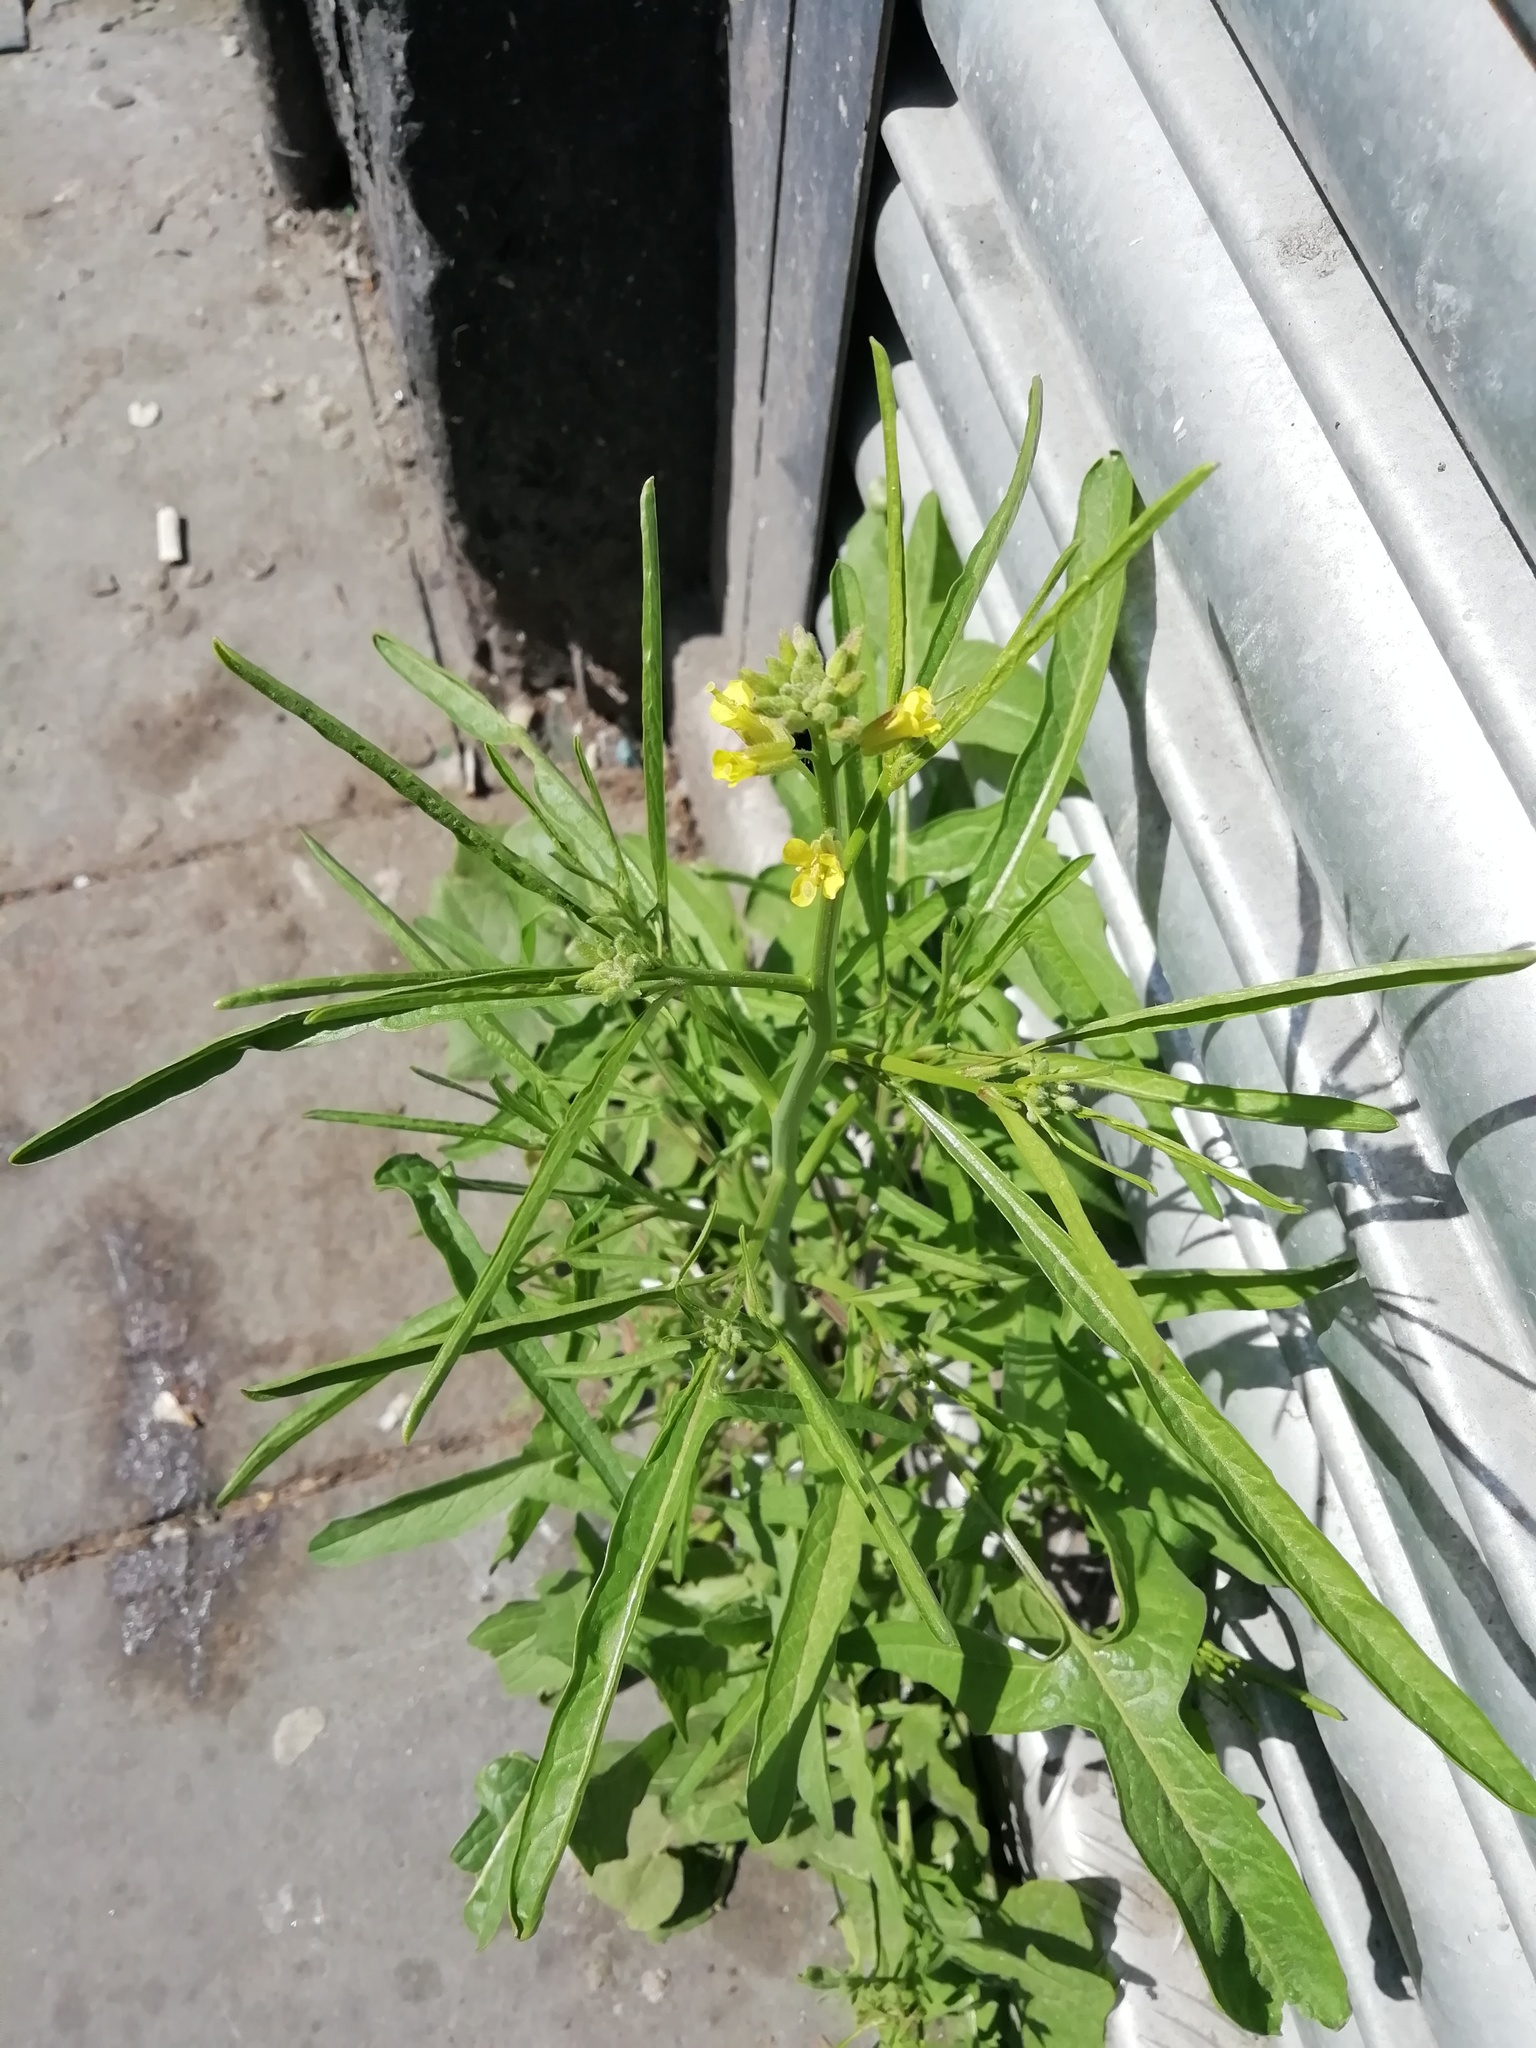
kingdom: Plantae
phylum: Tracheophyta
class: Magnoliopsida
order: Brassicales
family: Brassicaceae
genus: Sisymbrium
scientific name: Sisymbrium orientale
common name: Eastern rocket
